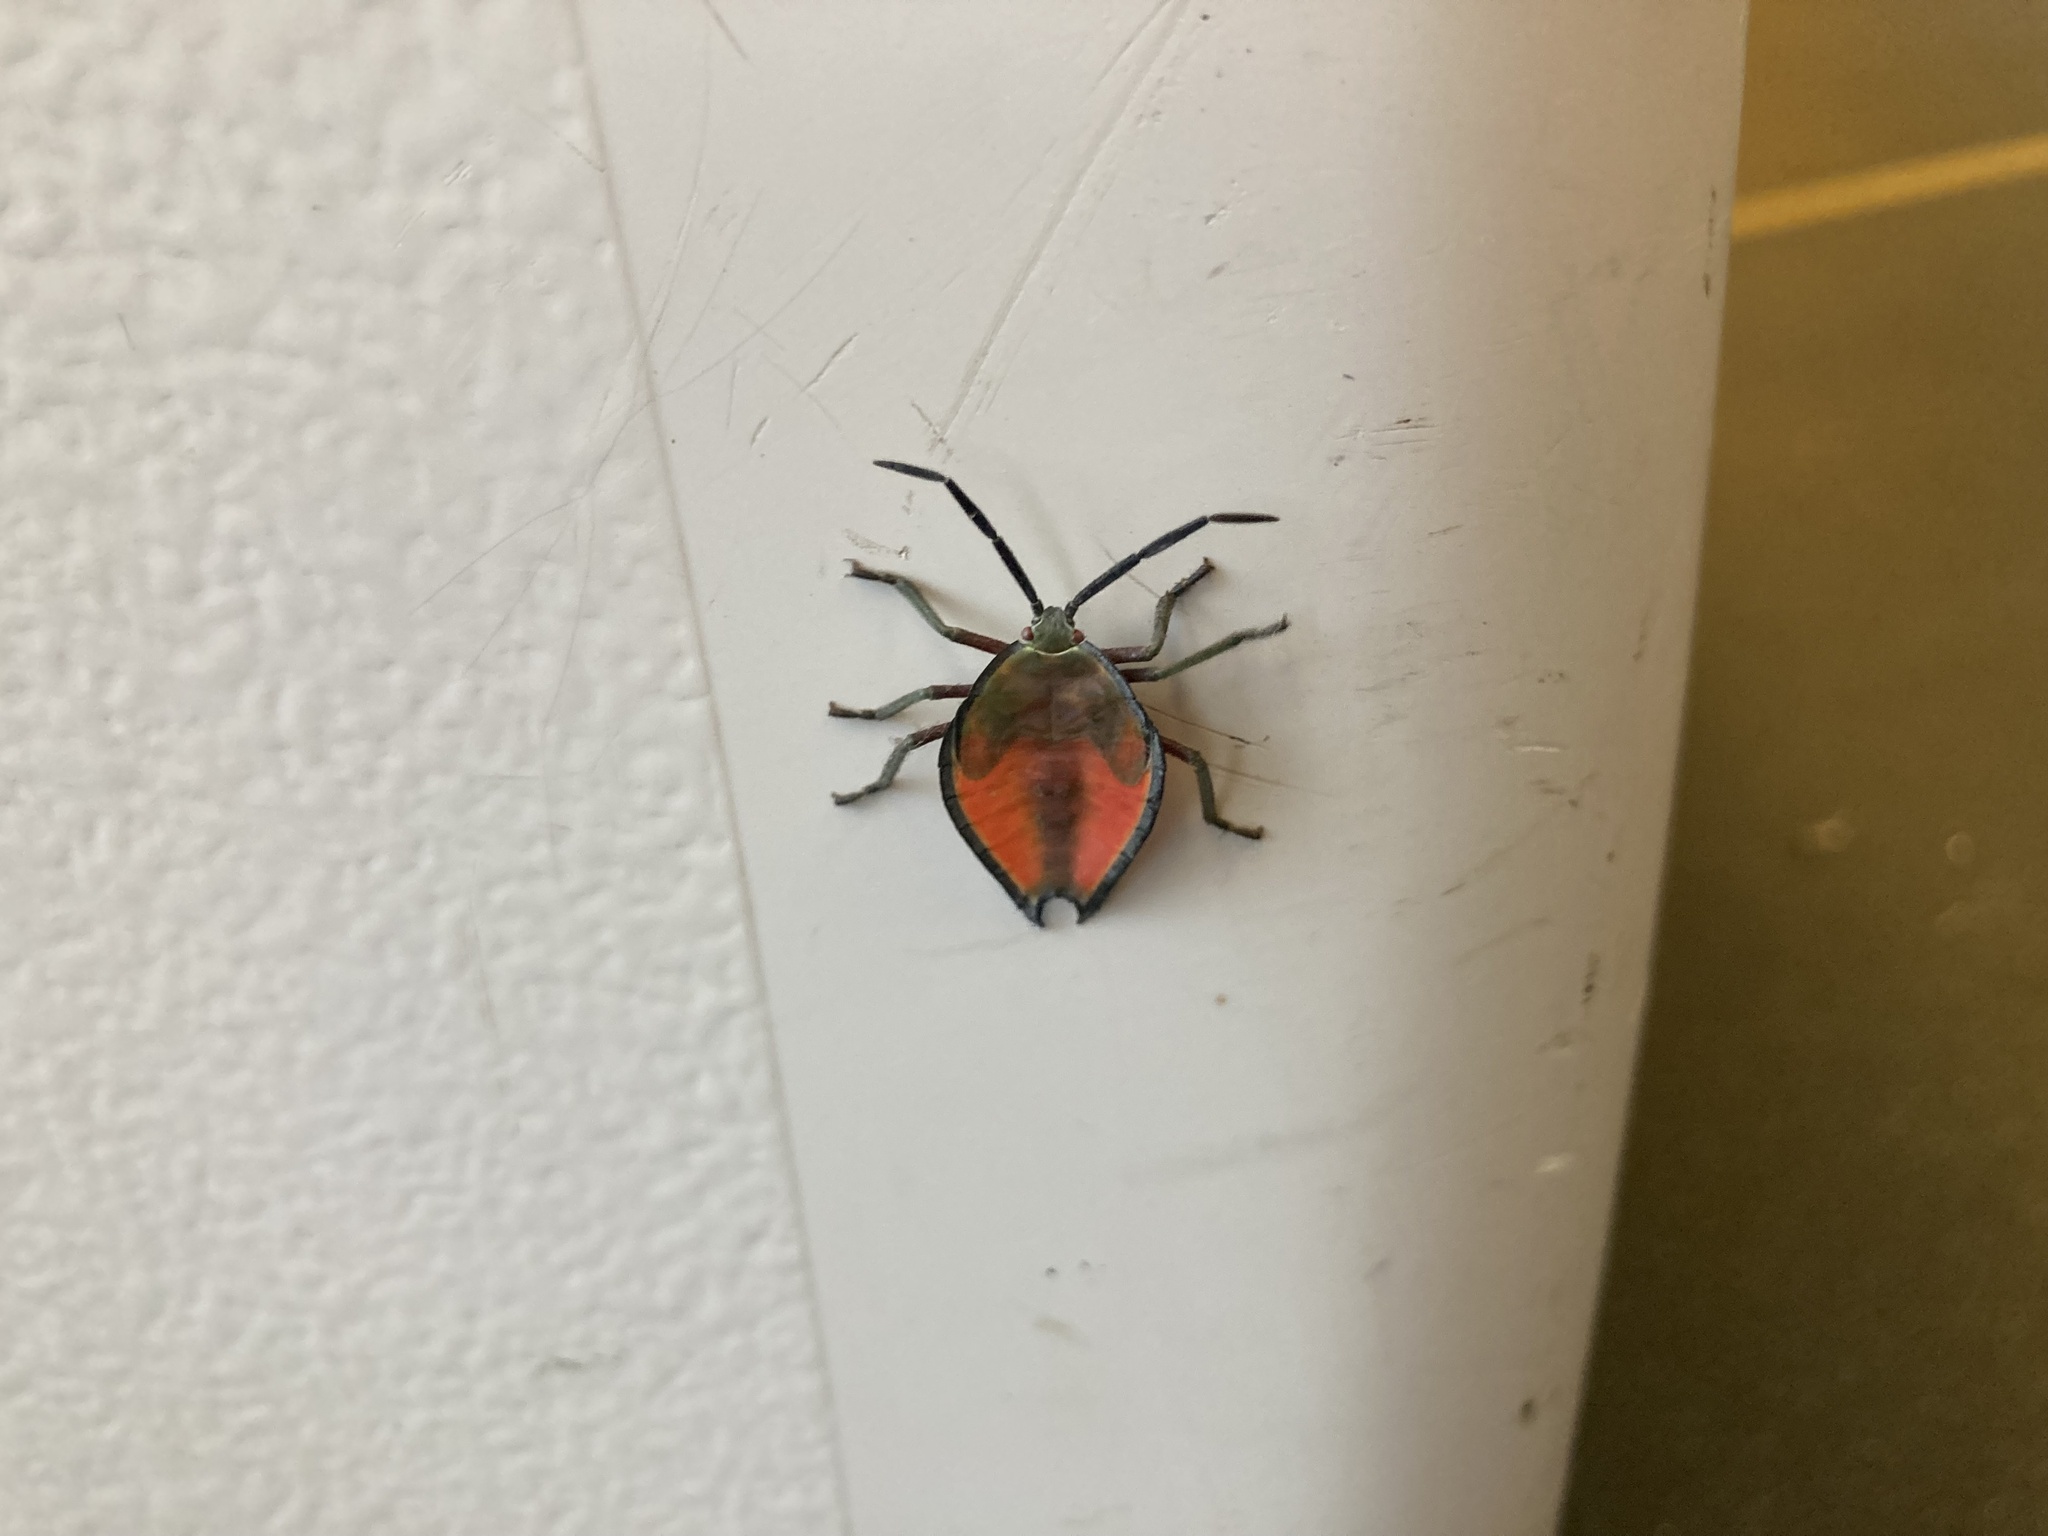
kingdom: Animalia
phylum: Arthropoda
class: Insecta
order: Hemiptera
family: Tessaratomidae
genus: Lyramorpha
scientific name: Lyramorpha rosea
